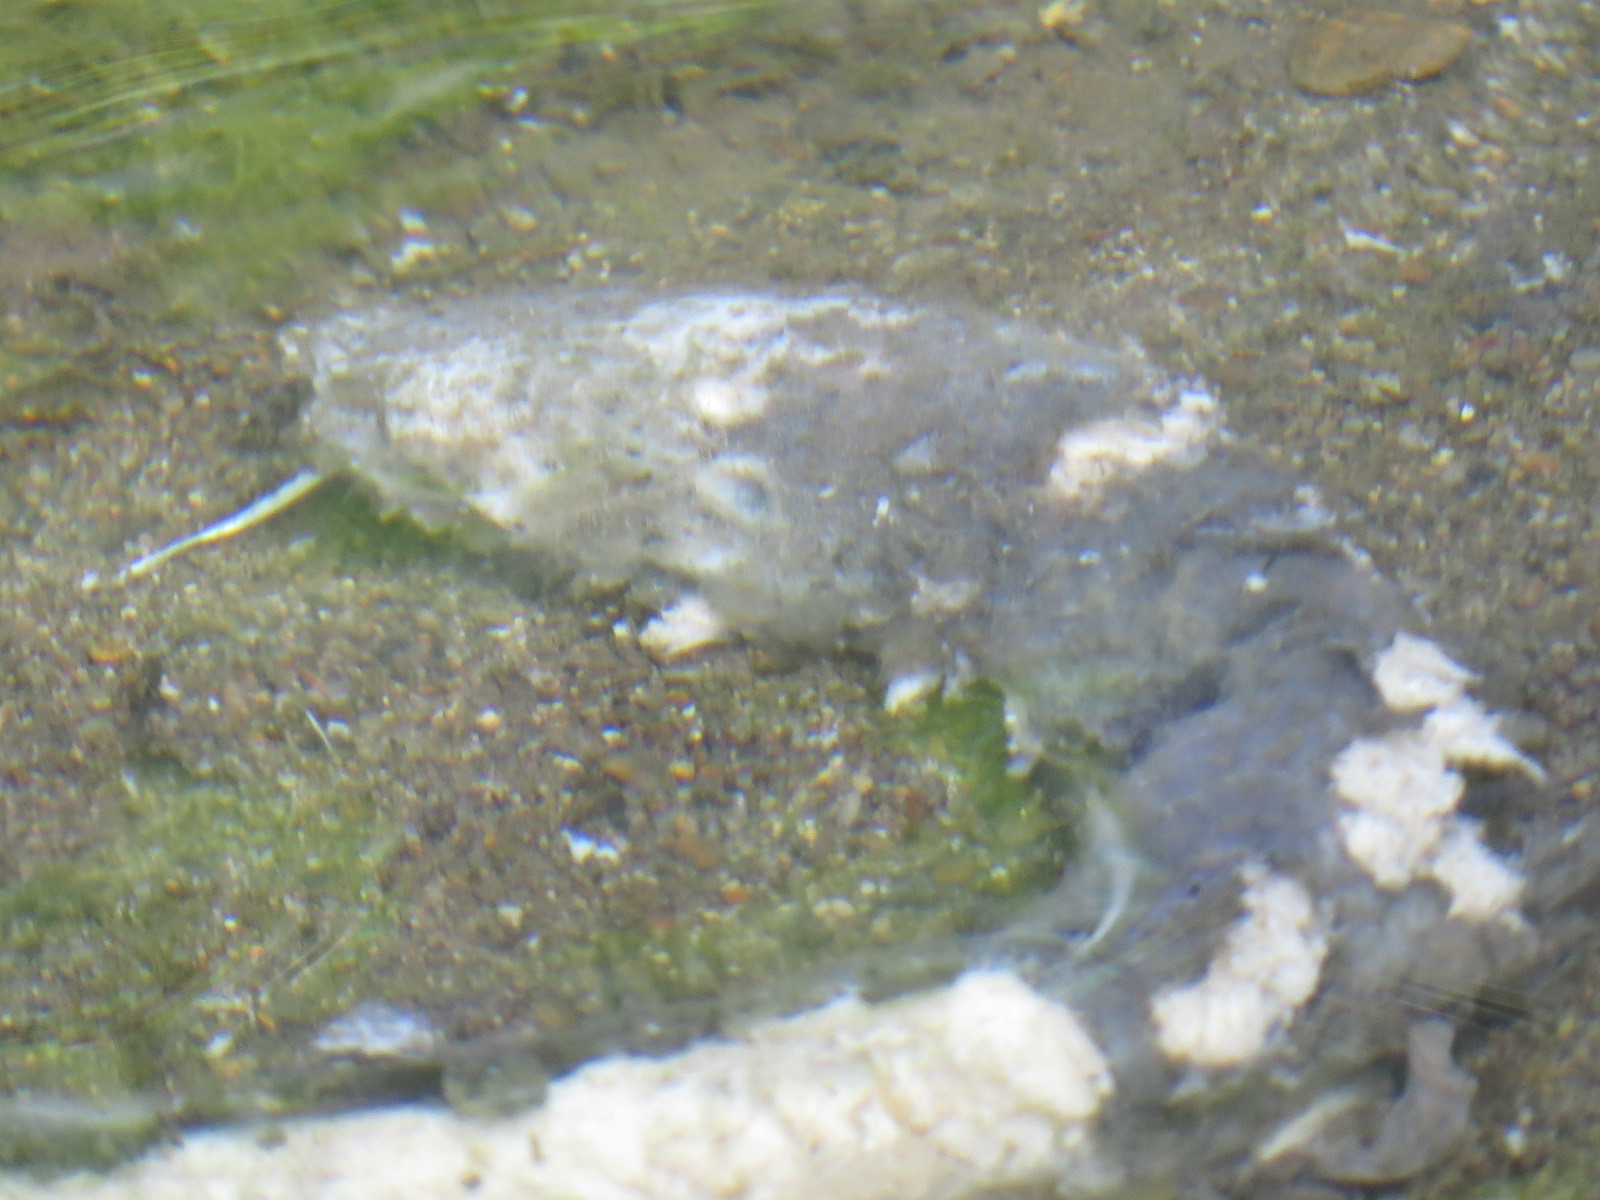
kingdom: Animalia
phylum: Chordata
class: Petromyzonti
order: Petromyzontiformes
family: Petromyzontidae
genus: Entosphenus
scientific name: Entosphenus tridentatus
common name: Pacific lamprey
